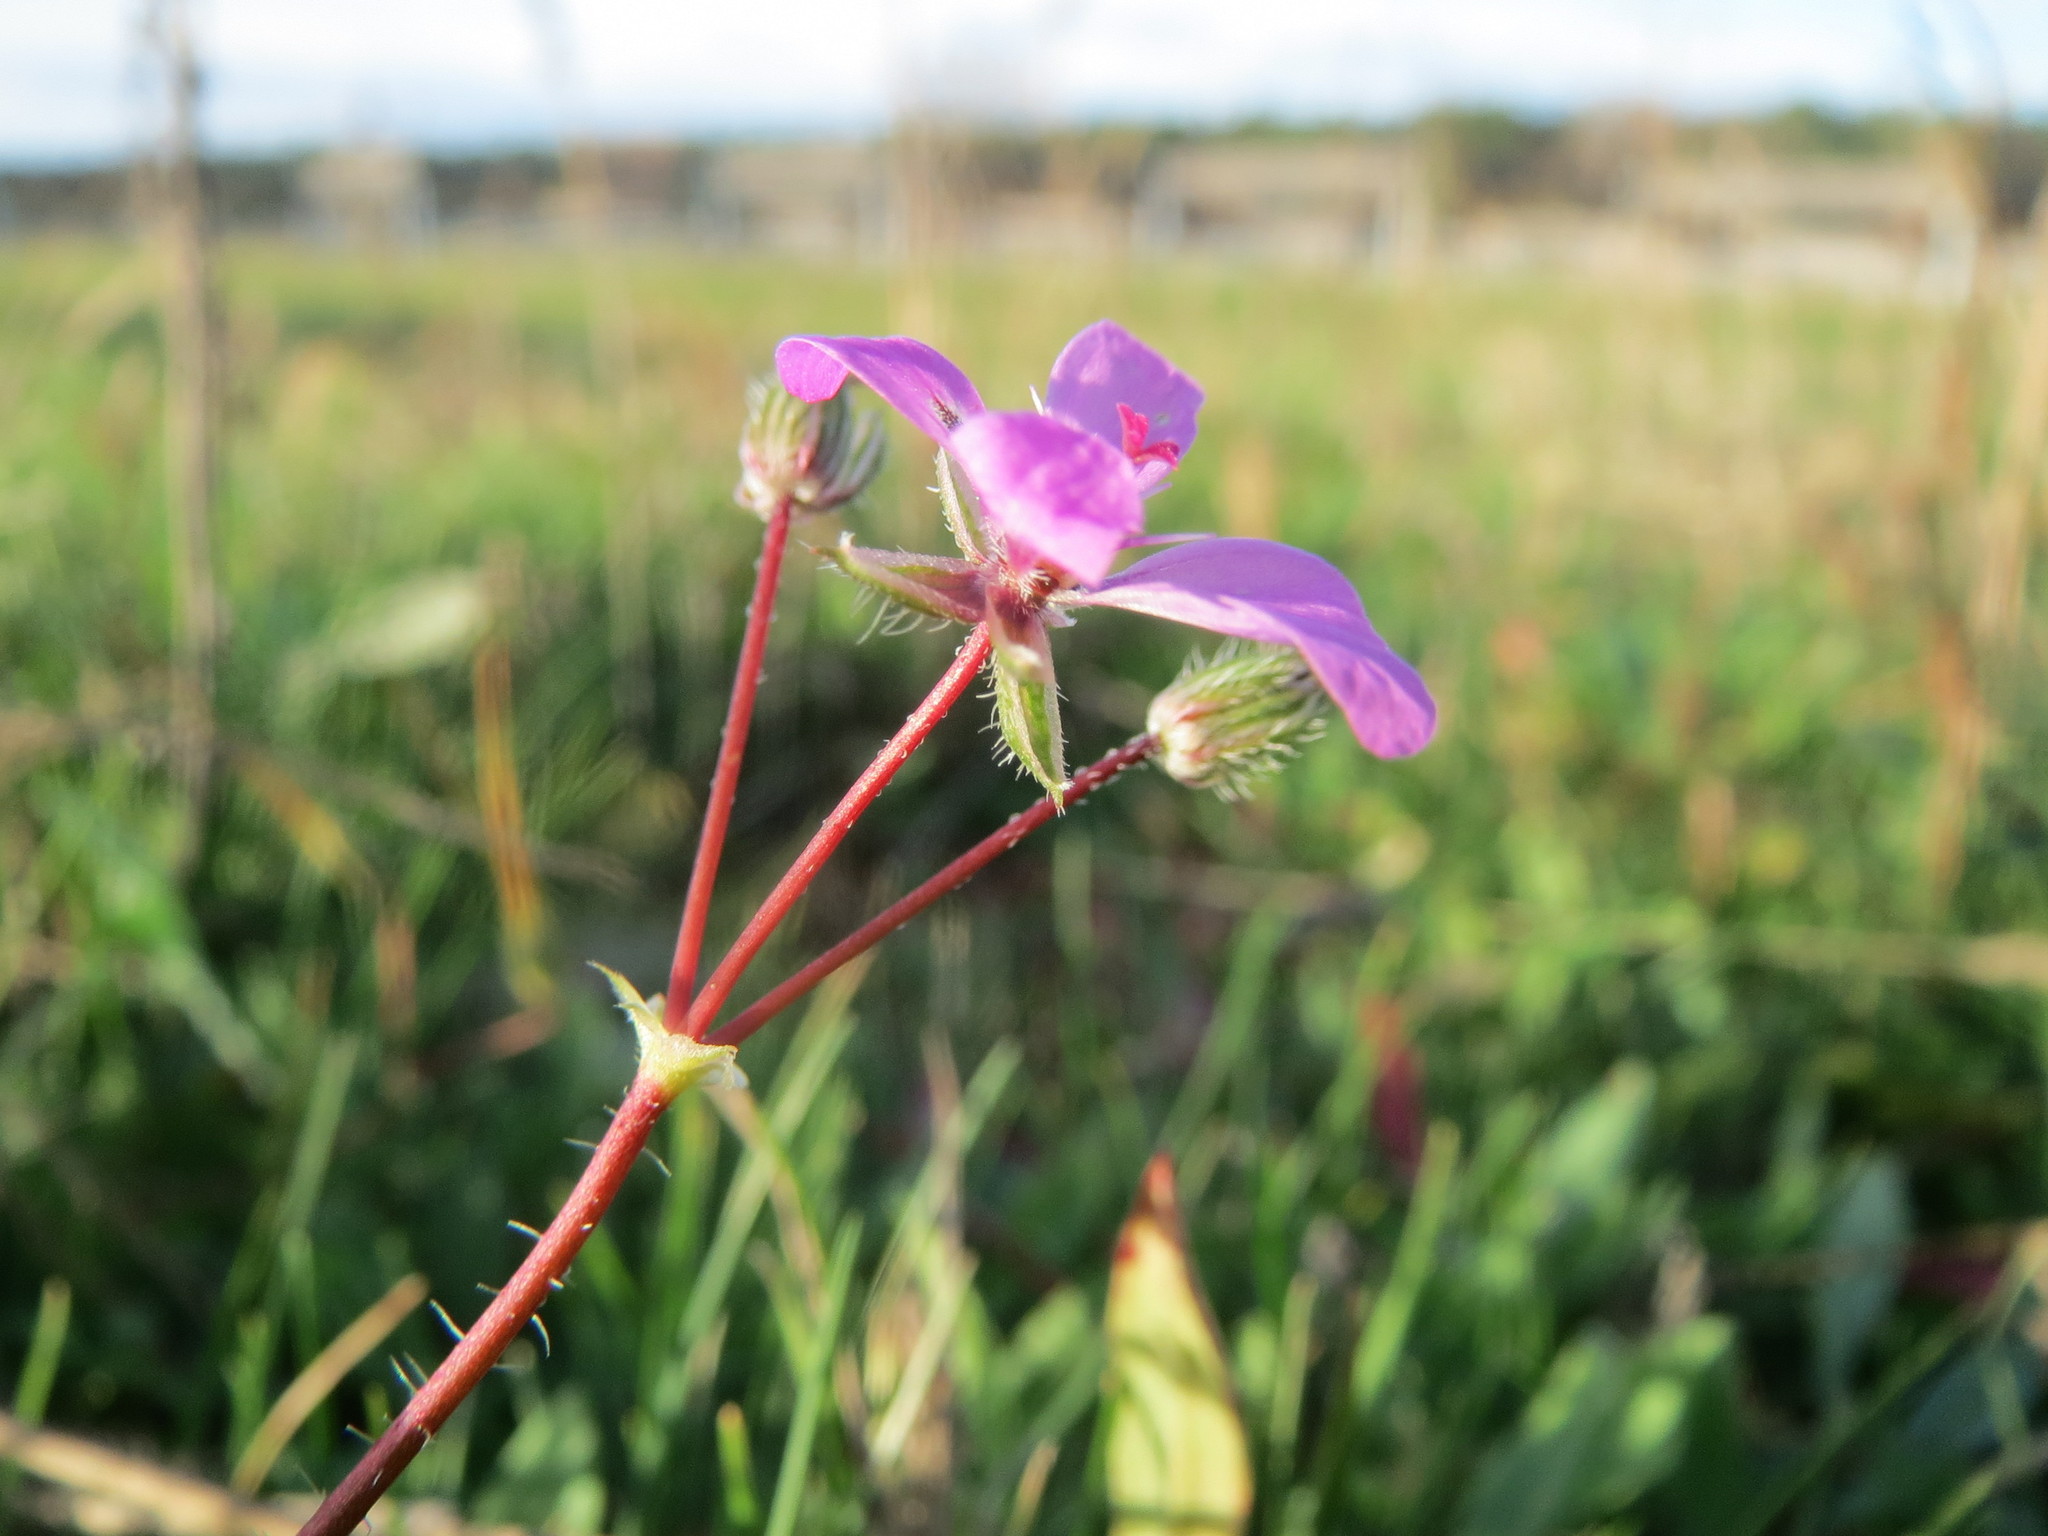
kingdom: Plantae
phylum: Tracheophyta
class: Magnoliopsida
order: Geraniales
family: Geraniaceae
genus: Erodium
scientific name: Erodium cicutarium
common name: Common stork's-bill
